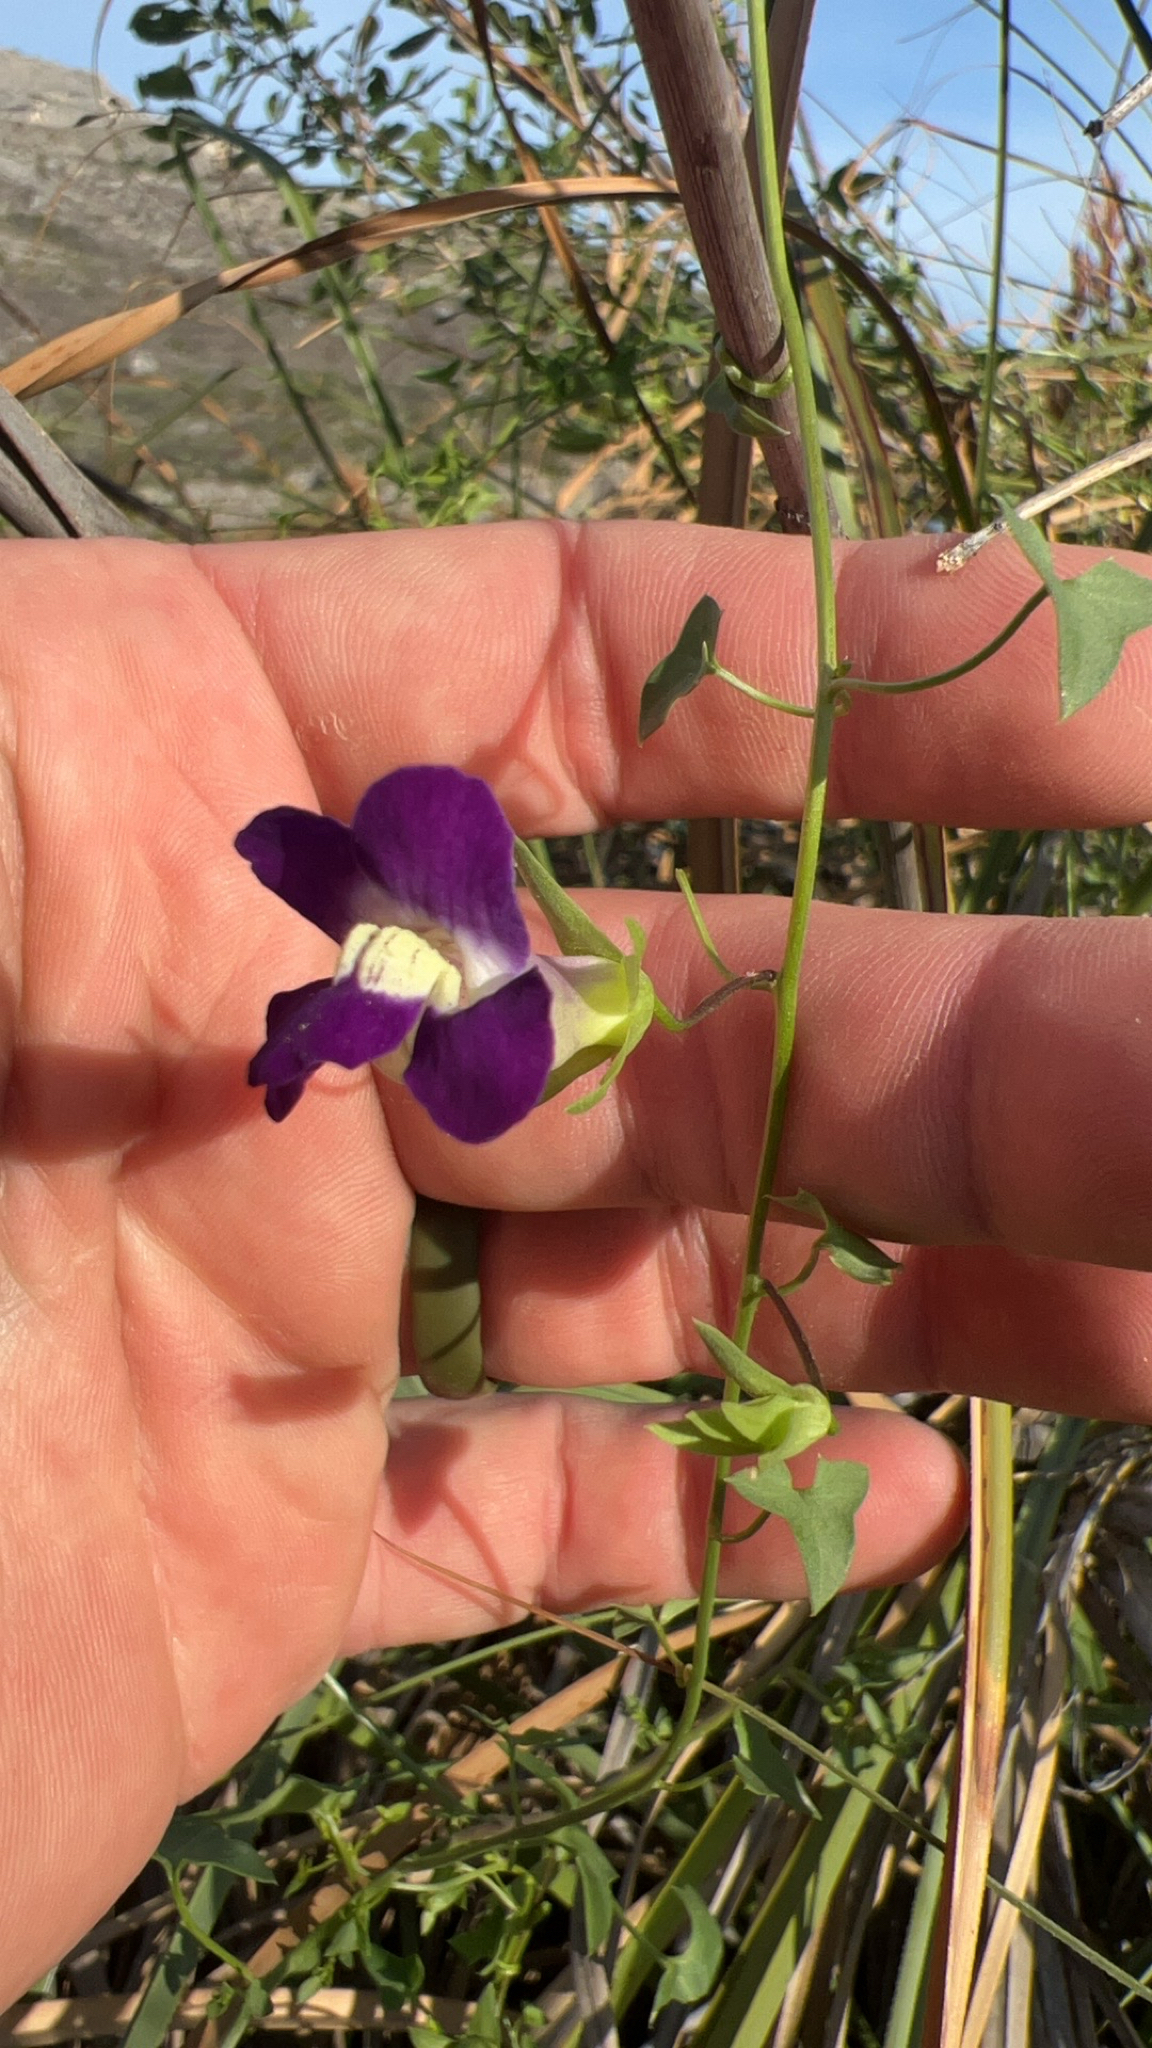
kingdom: Plantae
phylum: Tracheophyta
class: Magnoliopsida
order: Lamiales
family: Plantaginaceae
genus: Maurandella
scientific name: Maurandella antirrhiniflora
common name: Violet twining-snapdragon
